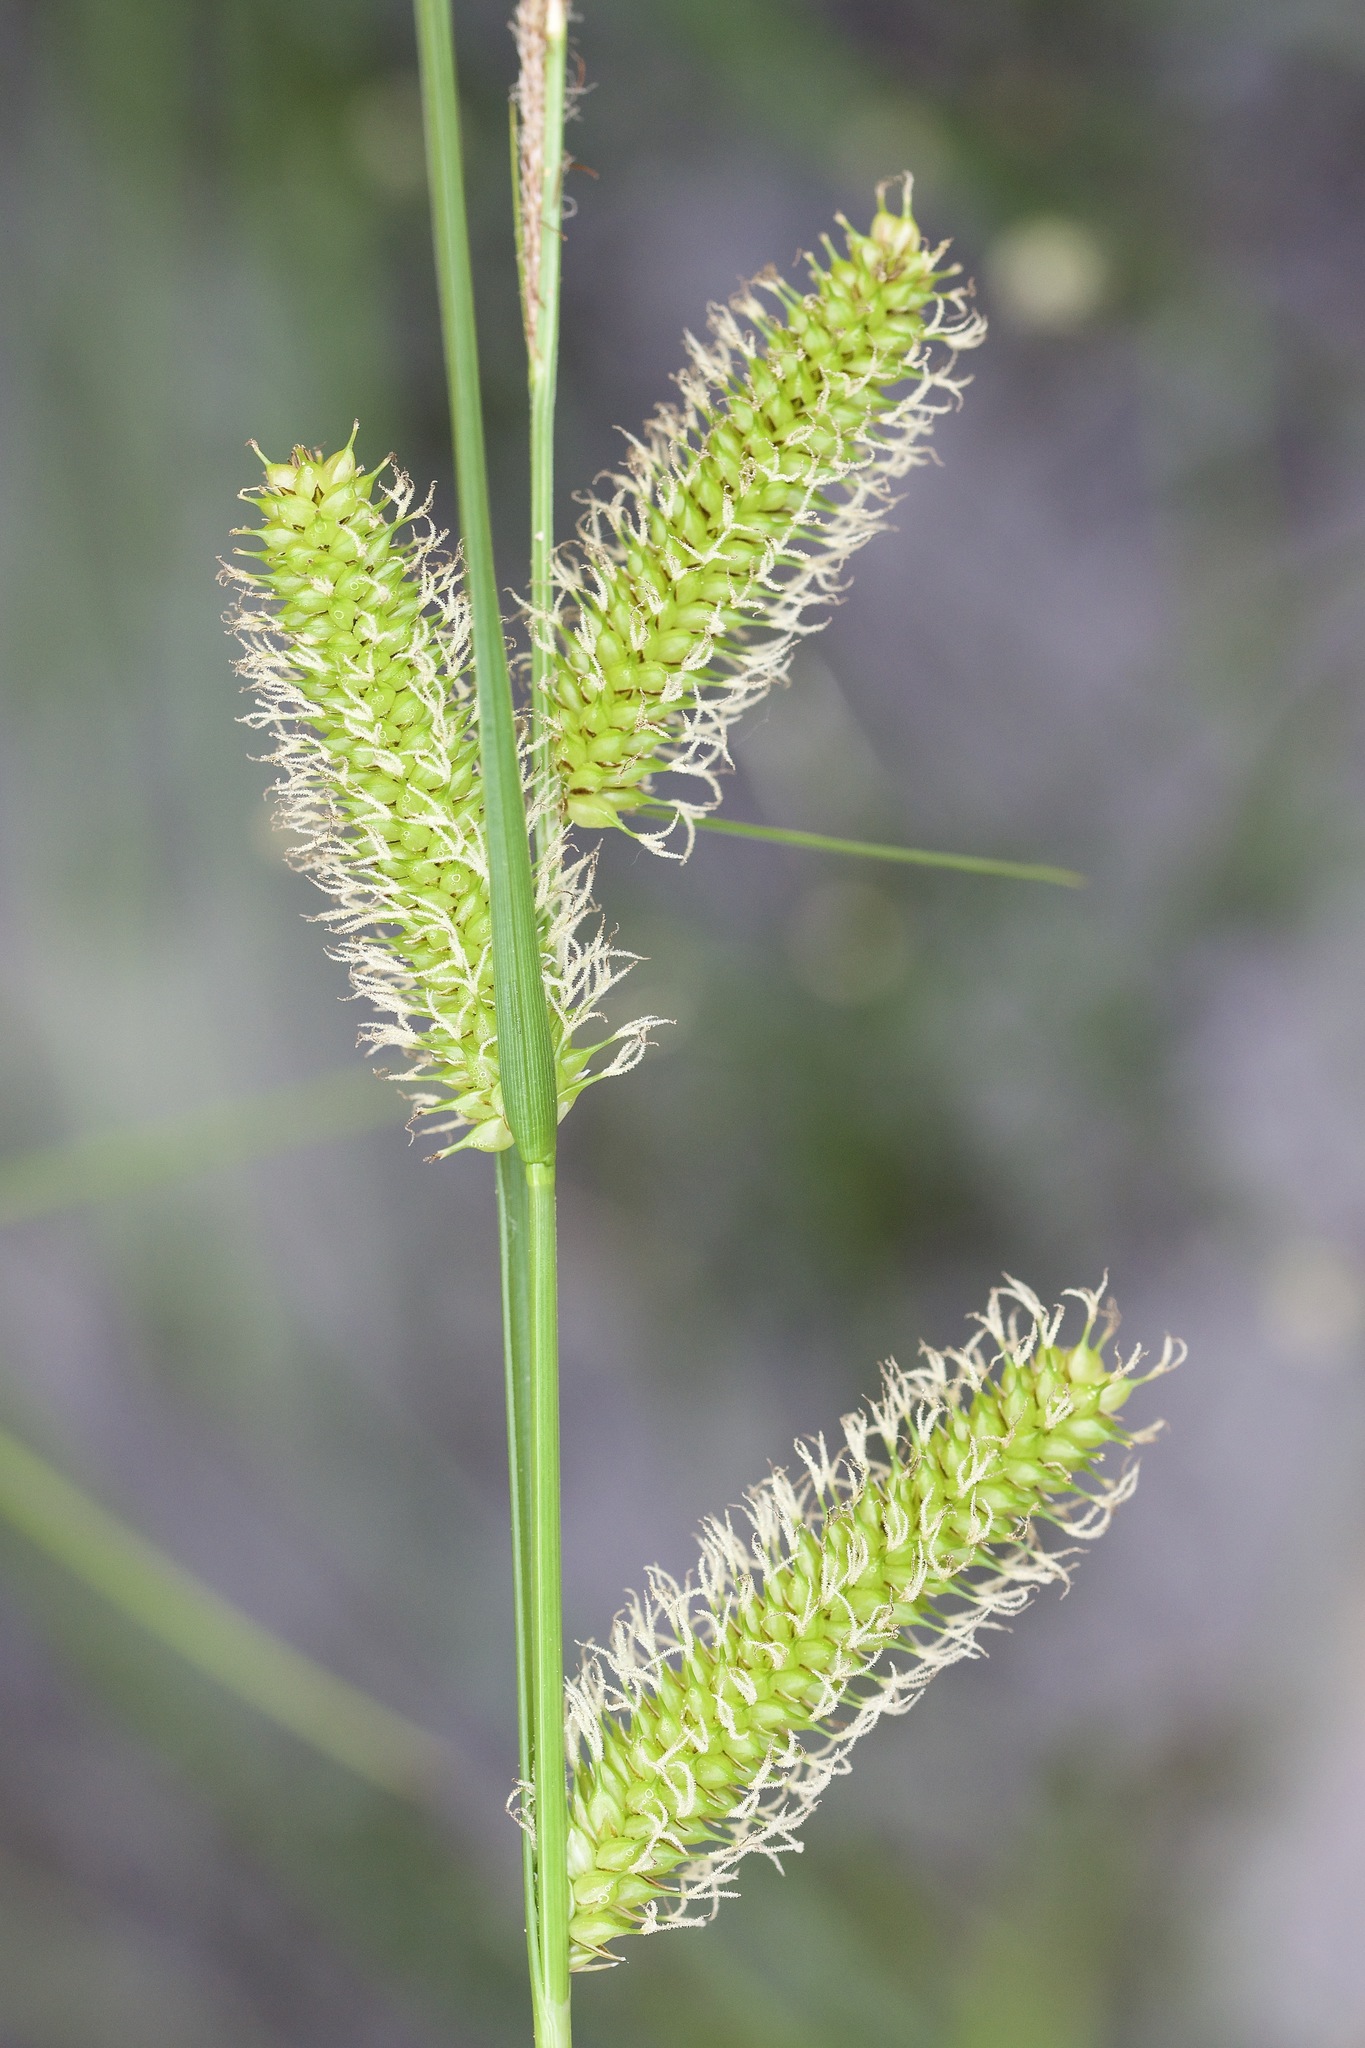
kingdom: Plantae
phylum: Tracheophyta
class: Liliopsida
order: Poales
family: Cyperaceae
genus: Carex
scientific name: Carex utriculata
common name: Beaked sedge
